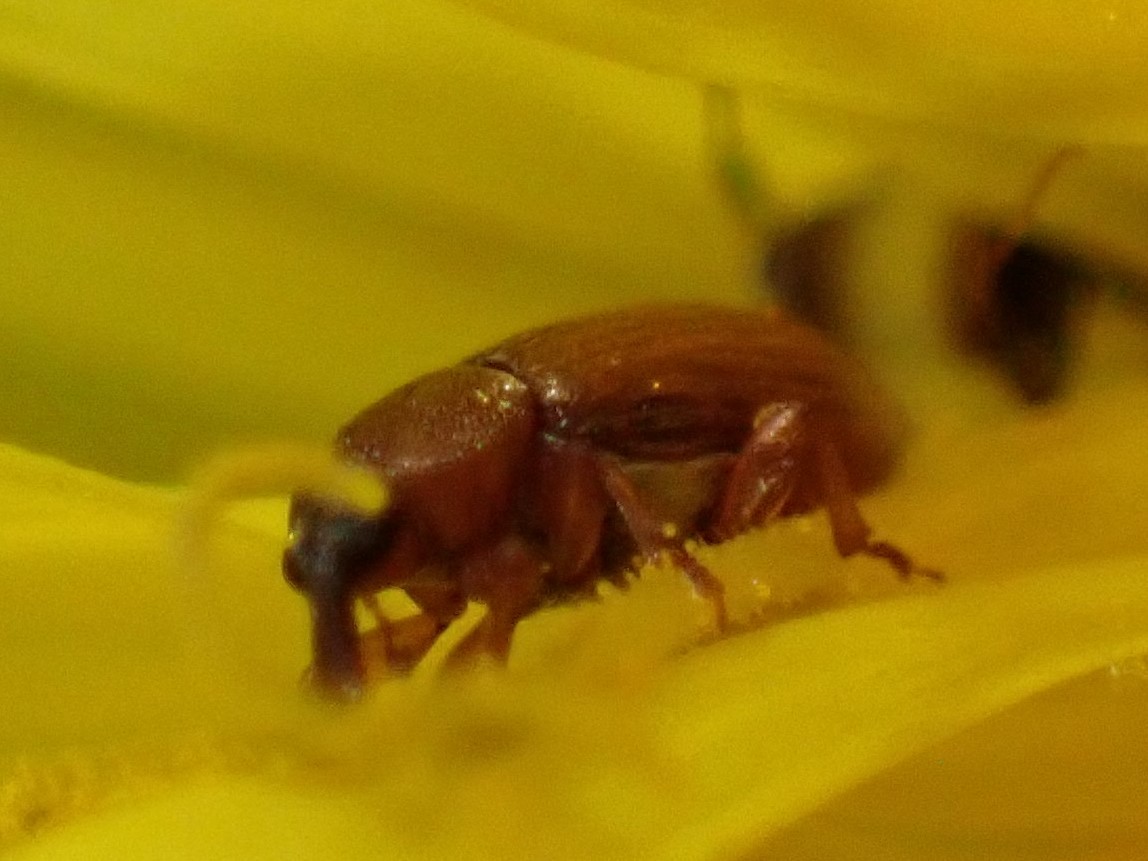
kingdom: Animalia
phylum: Arthropoda
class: Insecta
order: Hymenoptera
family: Formicidae
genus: Tapinoma
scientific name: Tapinoma sessile
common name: Odorous house ant
